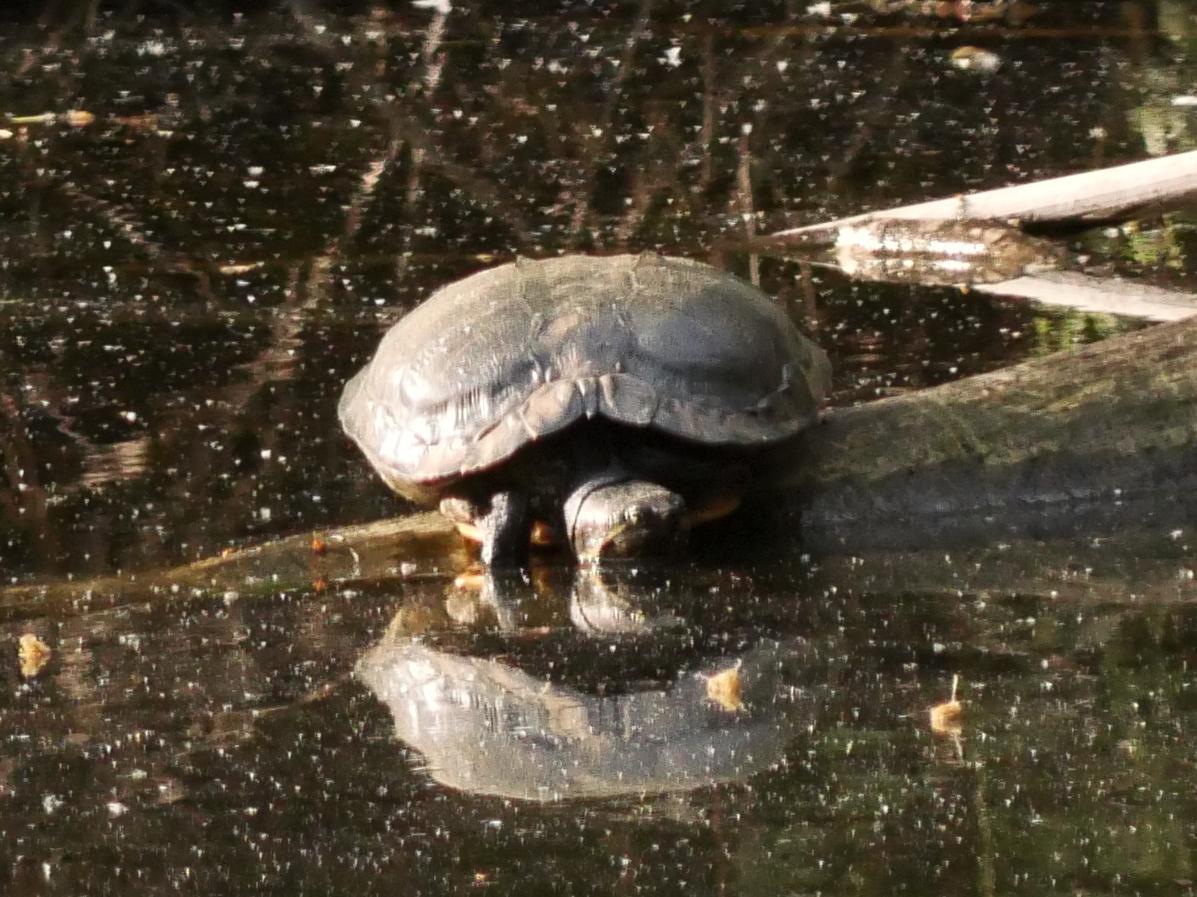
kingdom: Animalia
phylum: Chordata
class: Testudines
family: Emydidae
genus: Trachemys
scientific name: Trachemys scripta
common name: Slider
